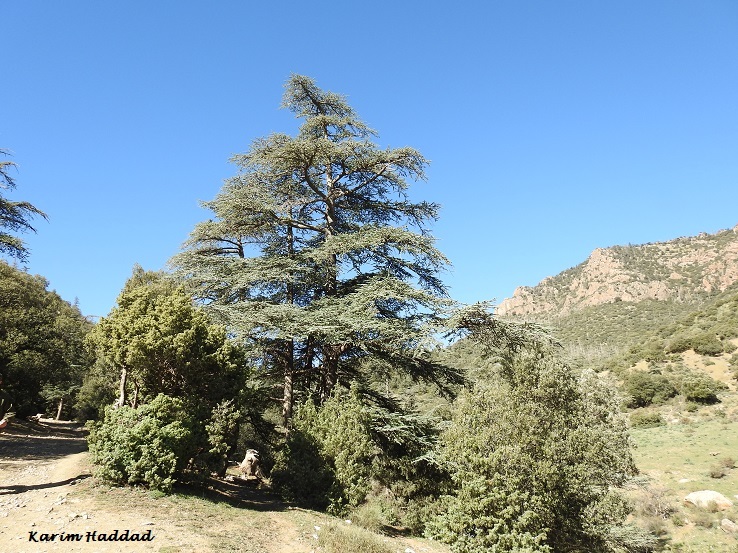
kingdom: Plantae
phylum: Tracheophyta
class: Pinopsida
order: Pinales
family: Pinaceae
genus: Cedrus
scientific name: Cedrus atlantica
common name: Atlas cedar
